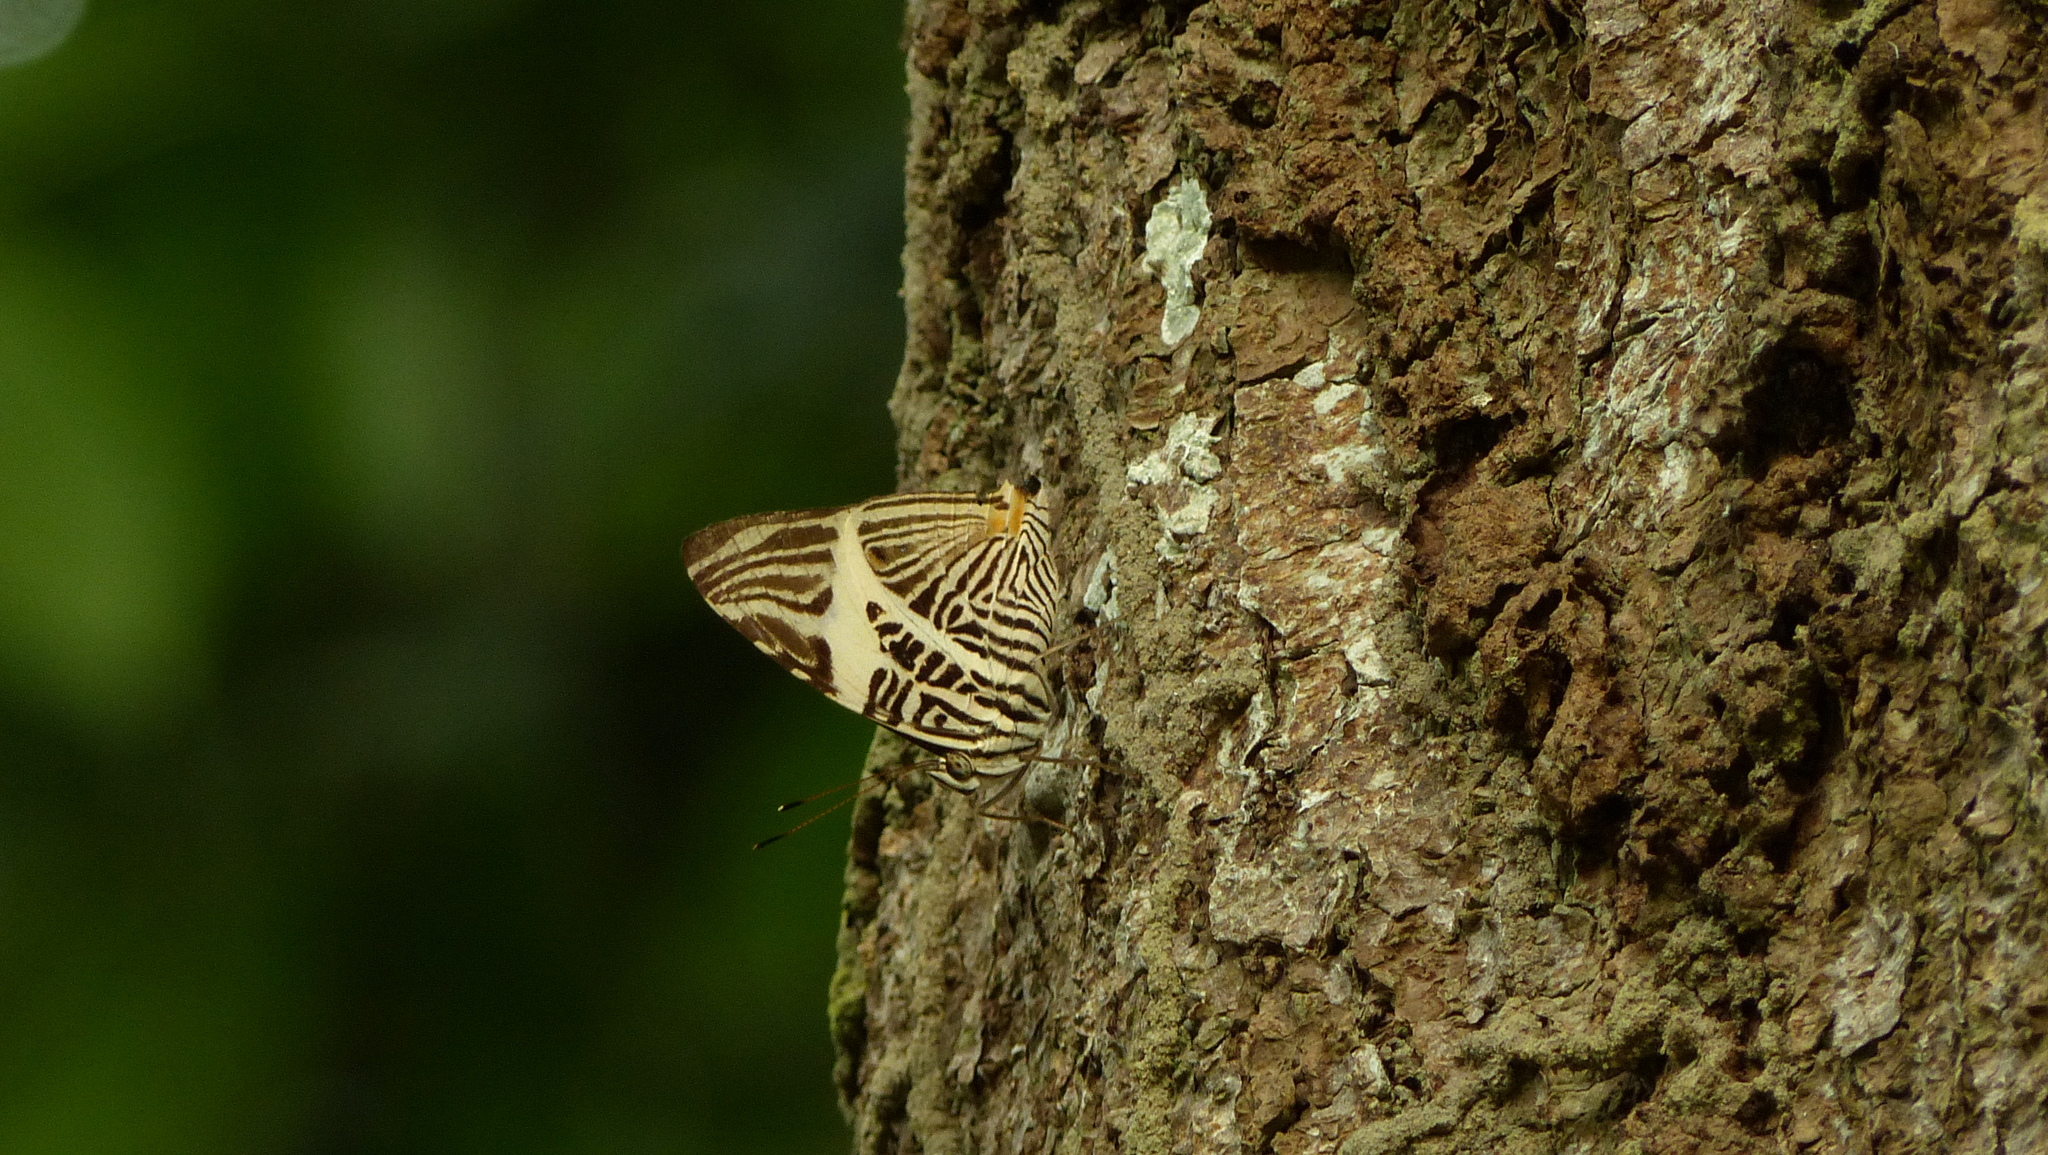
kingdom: Animalia
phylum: Arthropoda
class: Insecta
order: Lepidoptera
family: Nymphalidae
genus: Colobura
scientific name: Colobura dirce
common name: Dirce beauty
